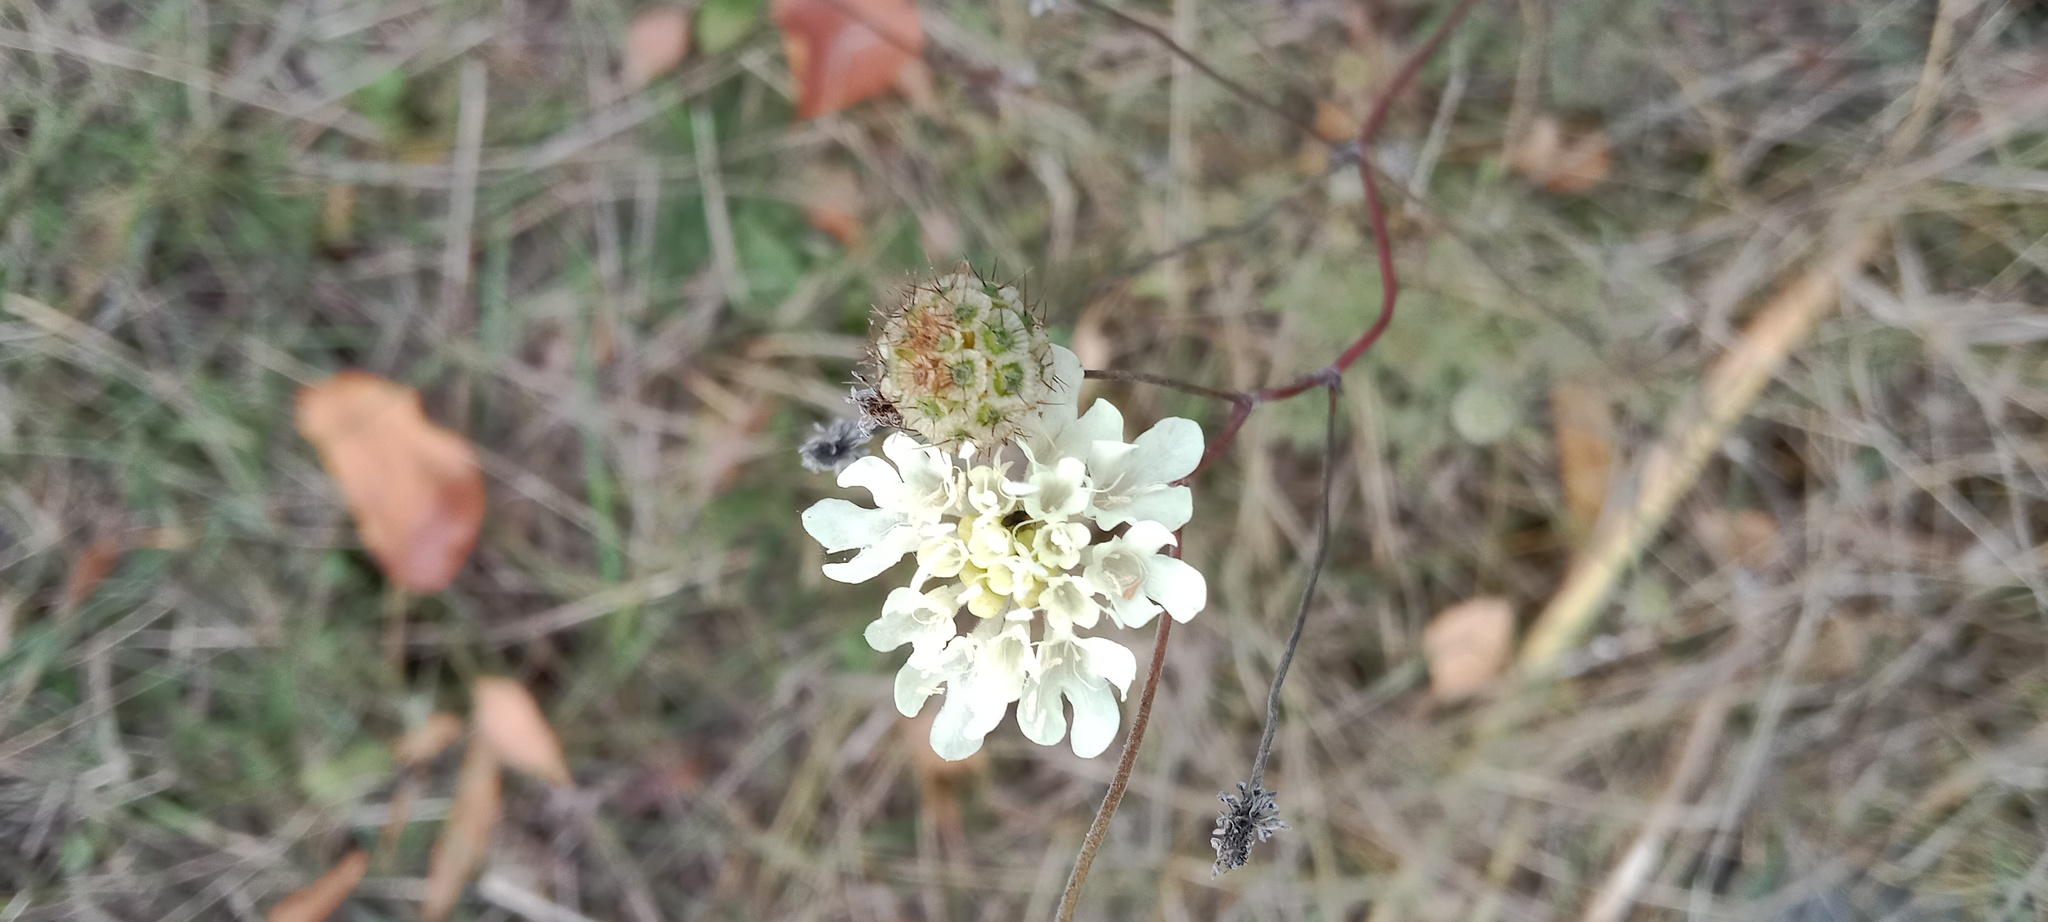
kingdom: Plantae
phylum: Tracheophyta
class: Magnoliopsida
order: Dipsacales
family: Caprifoliaceae
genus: Scabiosa
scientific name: Scabiosa ochroleuca
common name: Cream pincushions
